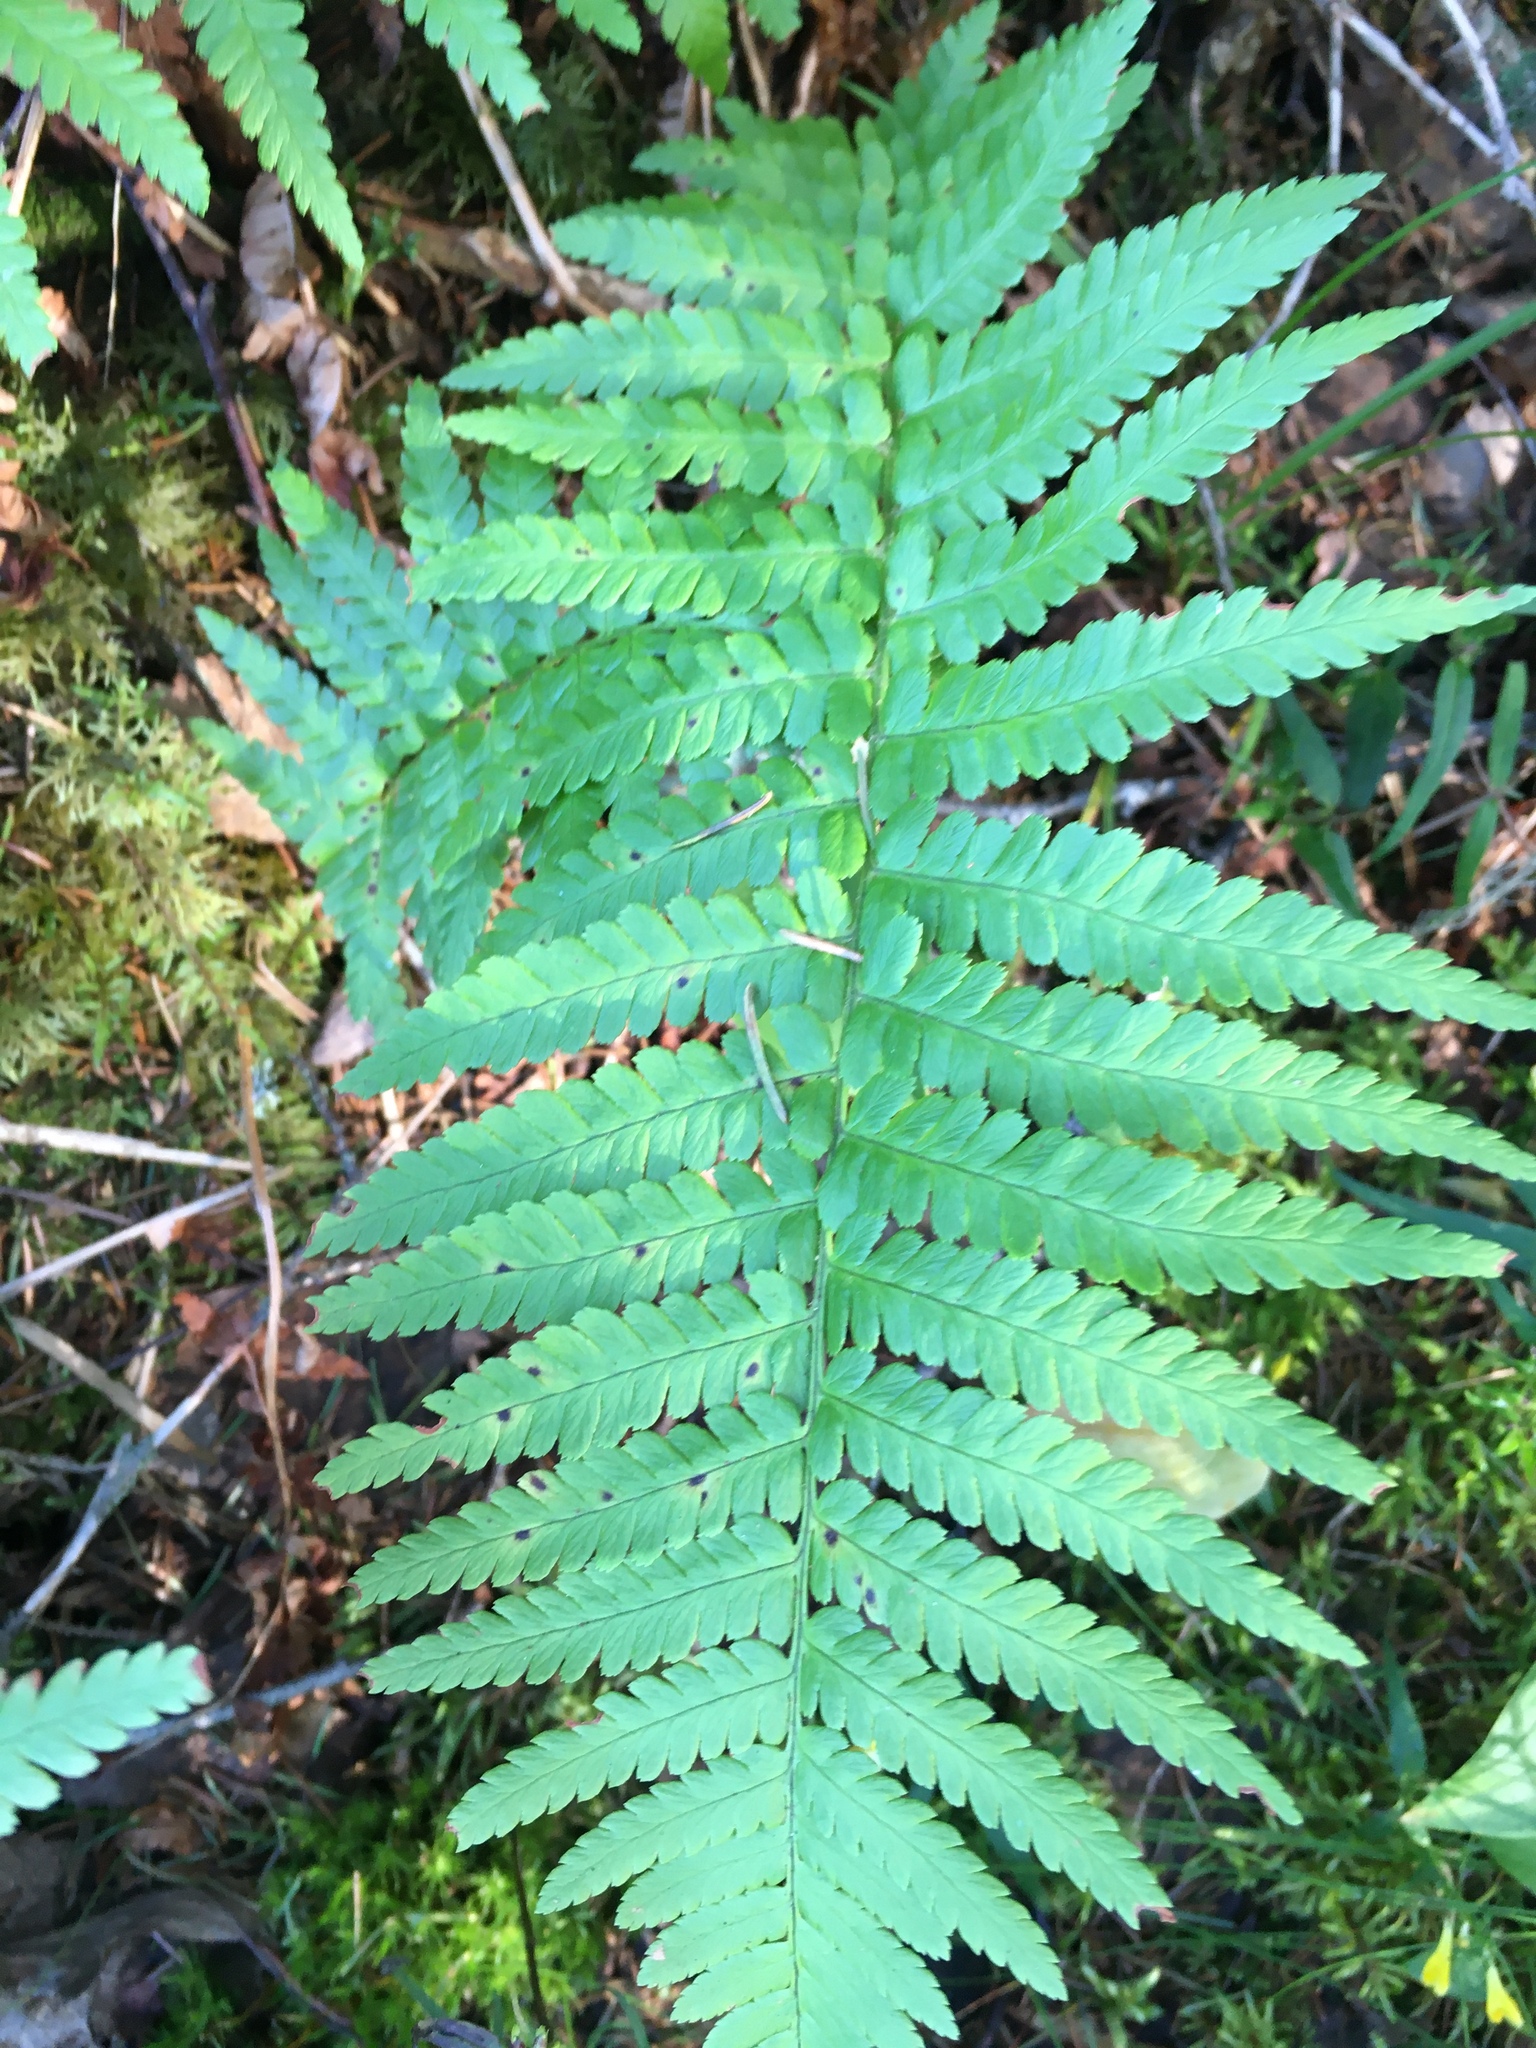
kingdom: Plantae
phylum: Tracheophyta
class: Polypodiopsida
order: Polypodiales
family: Dryopteridaceae
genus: Dryopteris
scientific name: Dryopteris filix-mas
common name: Male fern
